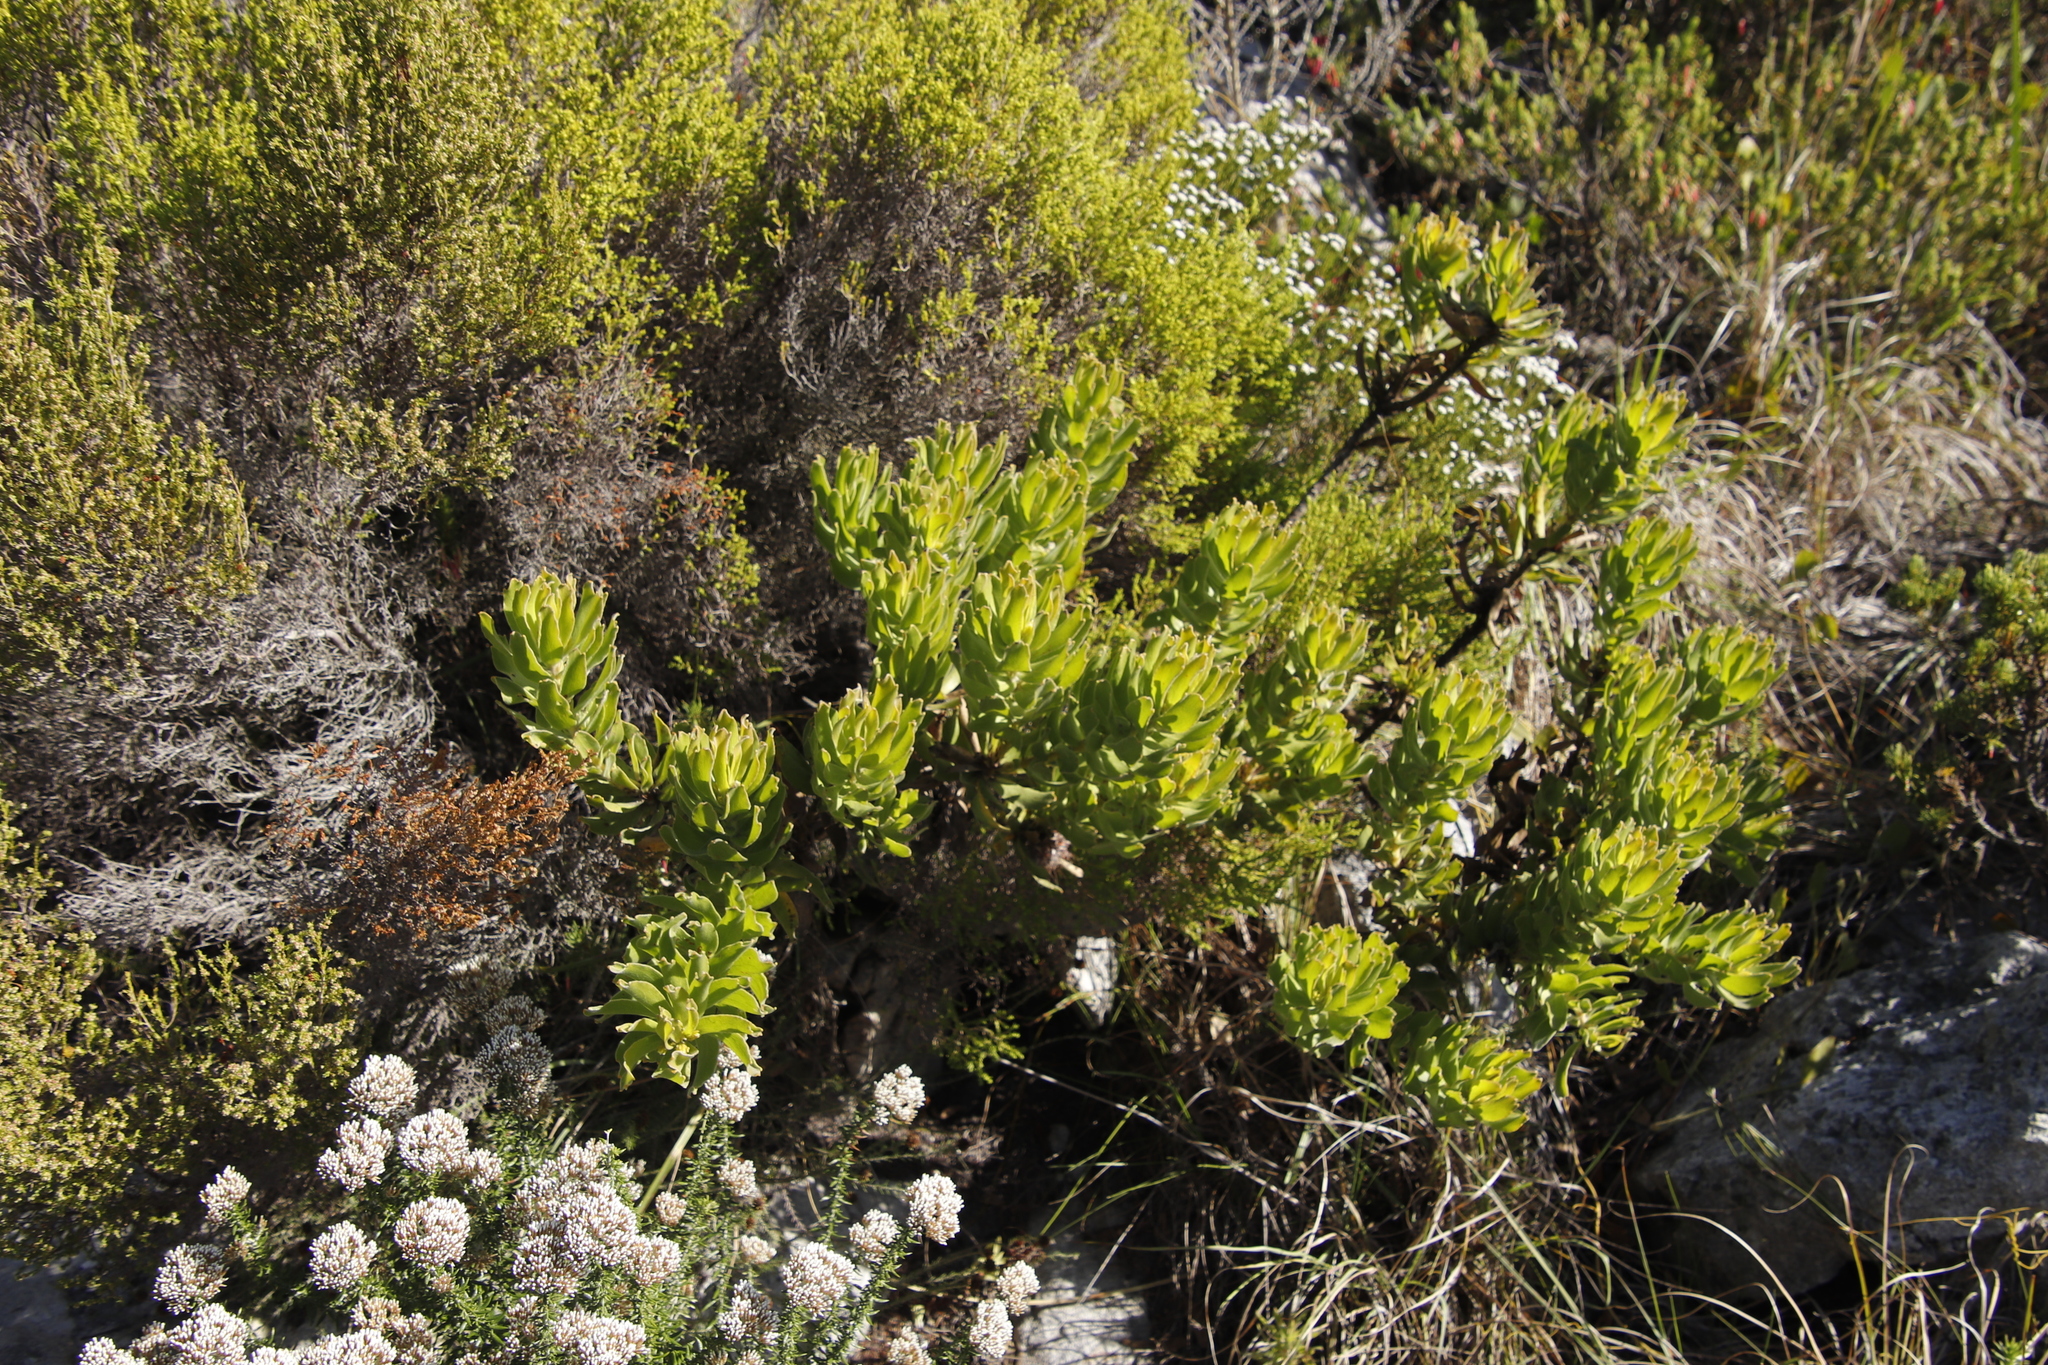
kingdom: Plantae
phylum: Tracheophyta
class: Magnoliopsida
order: Proteales
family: Proteaceae
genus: Leucospermum
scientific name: Leucospermum oleifolium
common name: Matches
